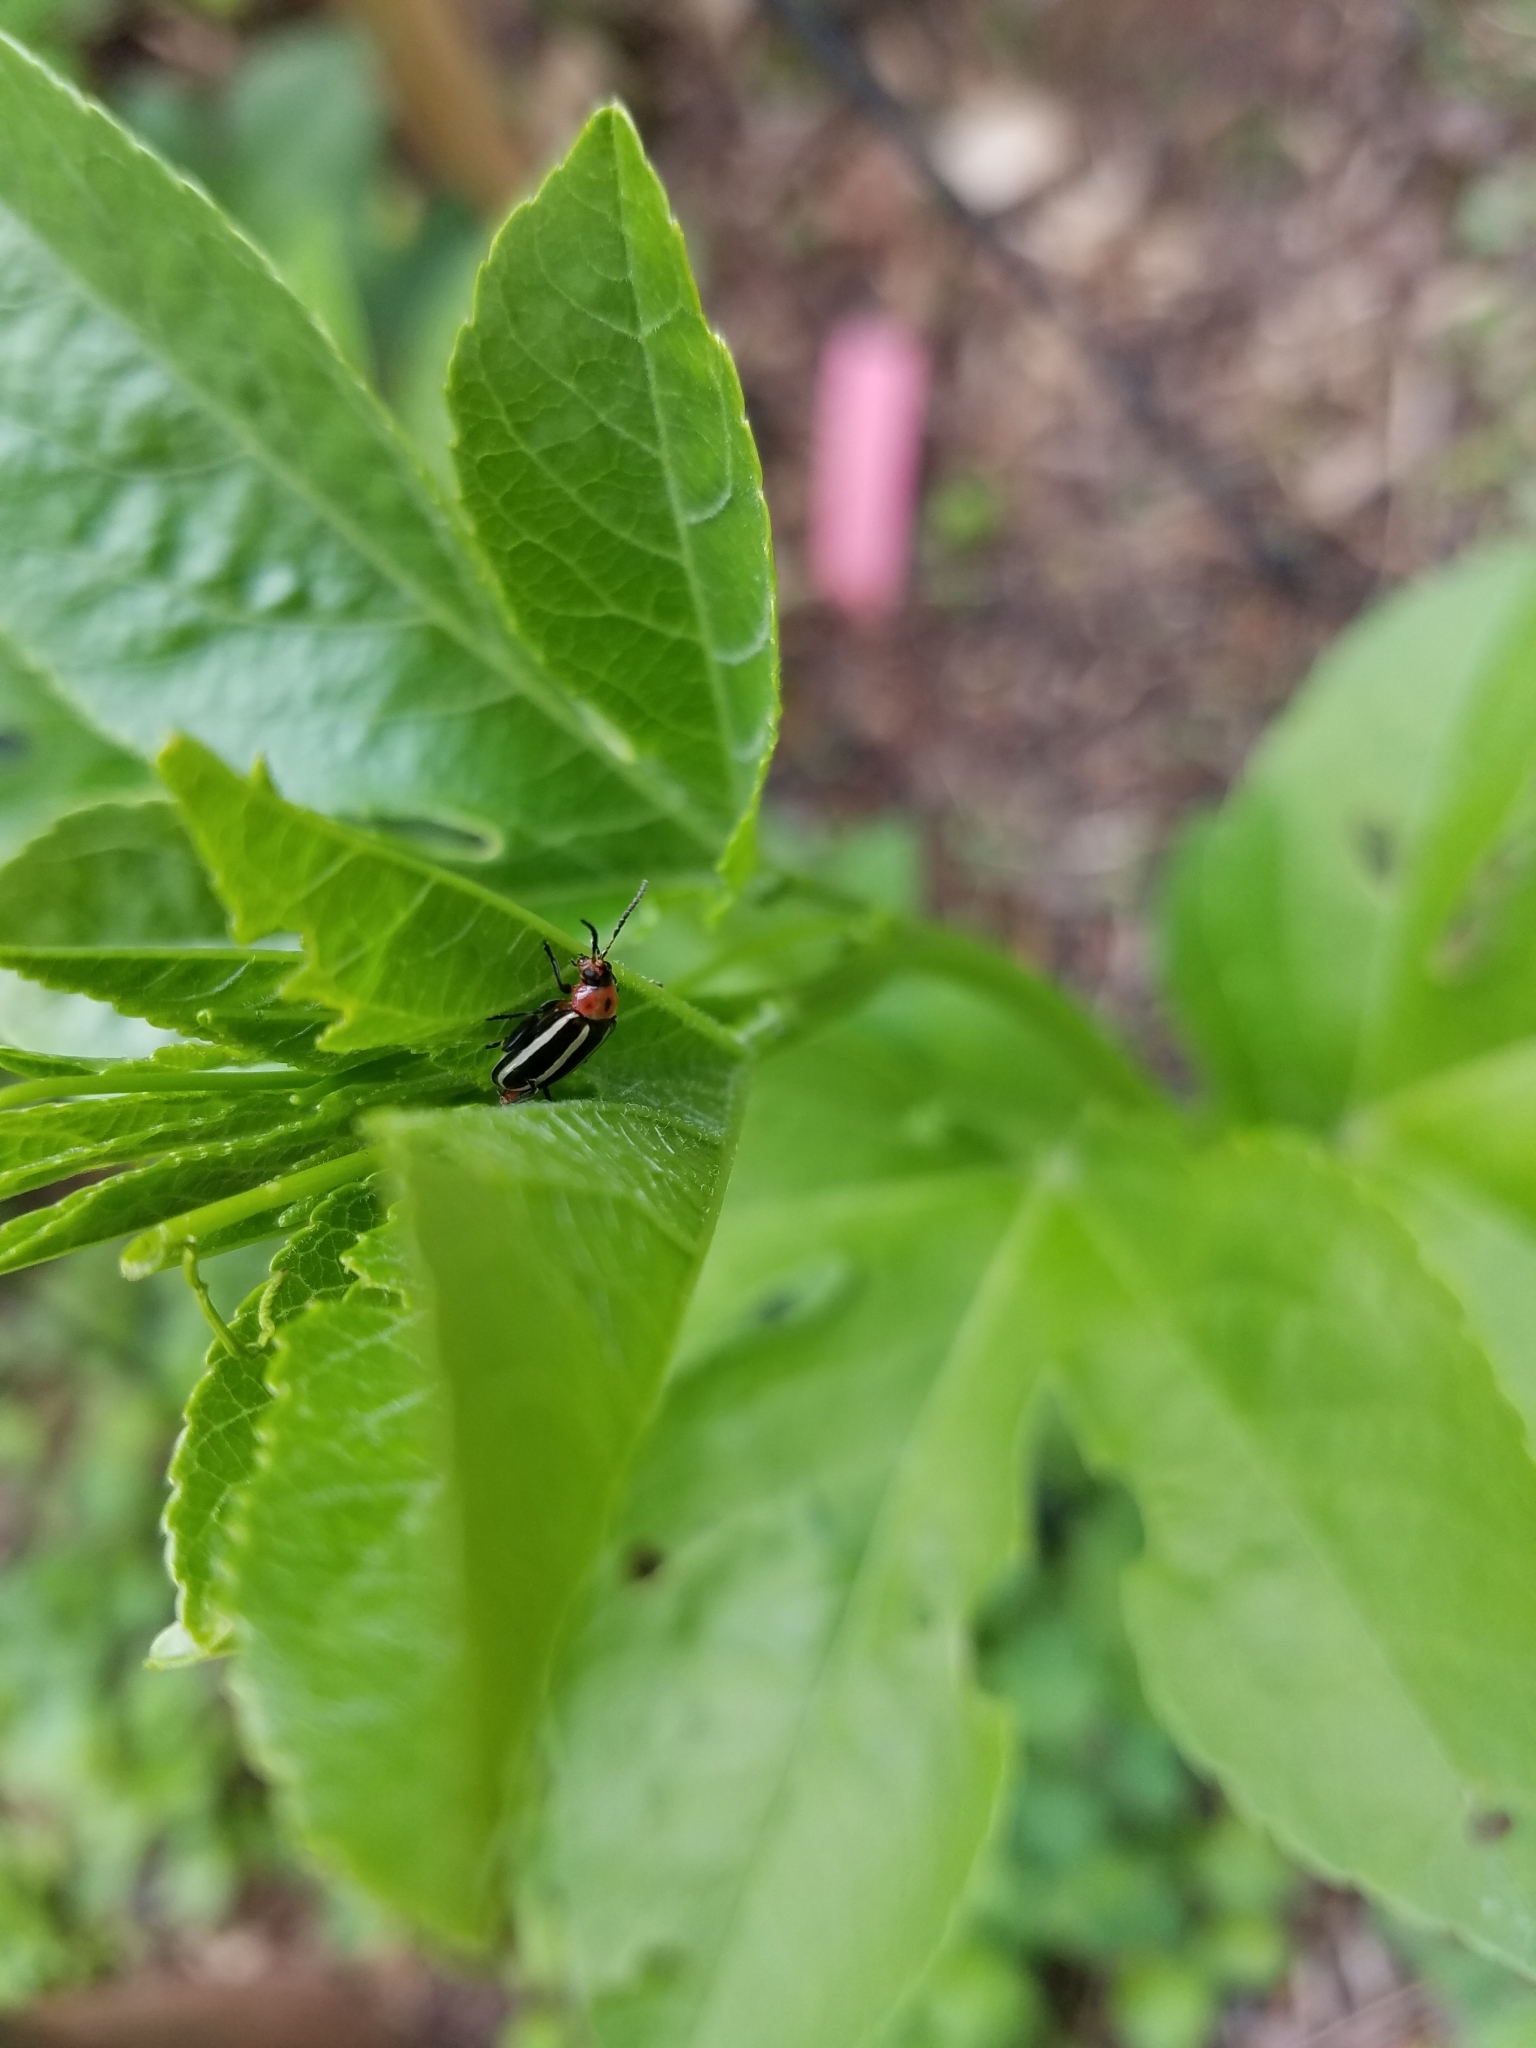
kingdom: Animalia
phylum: Arthropoda
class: Insecta
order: Coleoptera
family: Chrysomelidae
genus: Disonycha
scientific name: Disonycha glabrata
